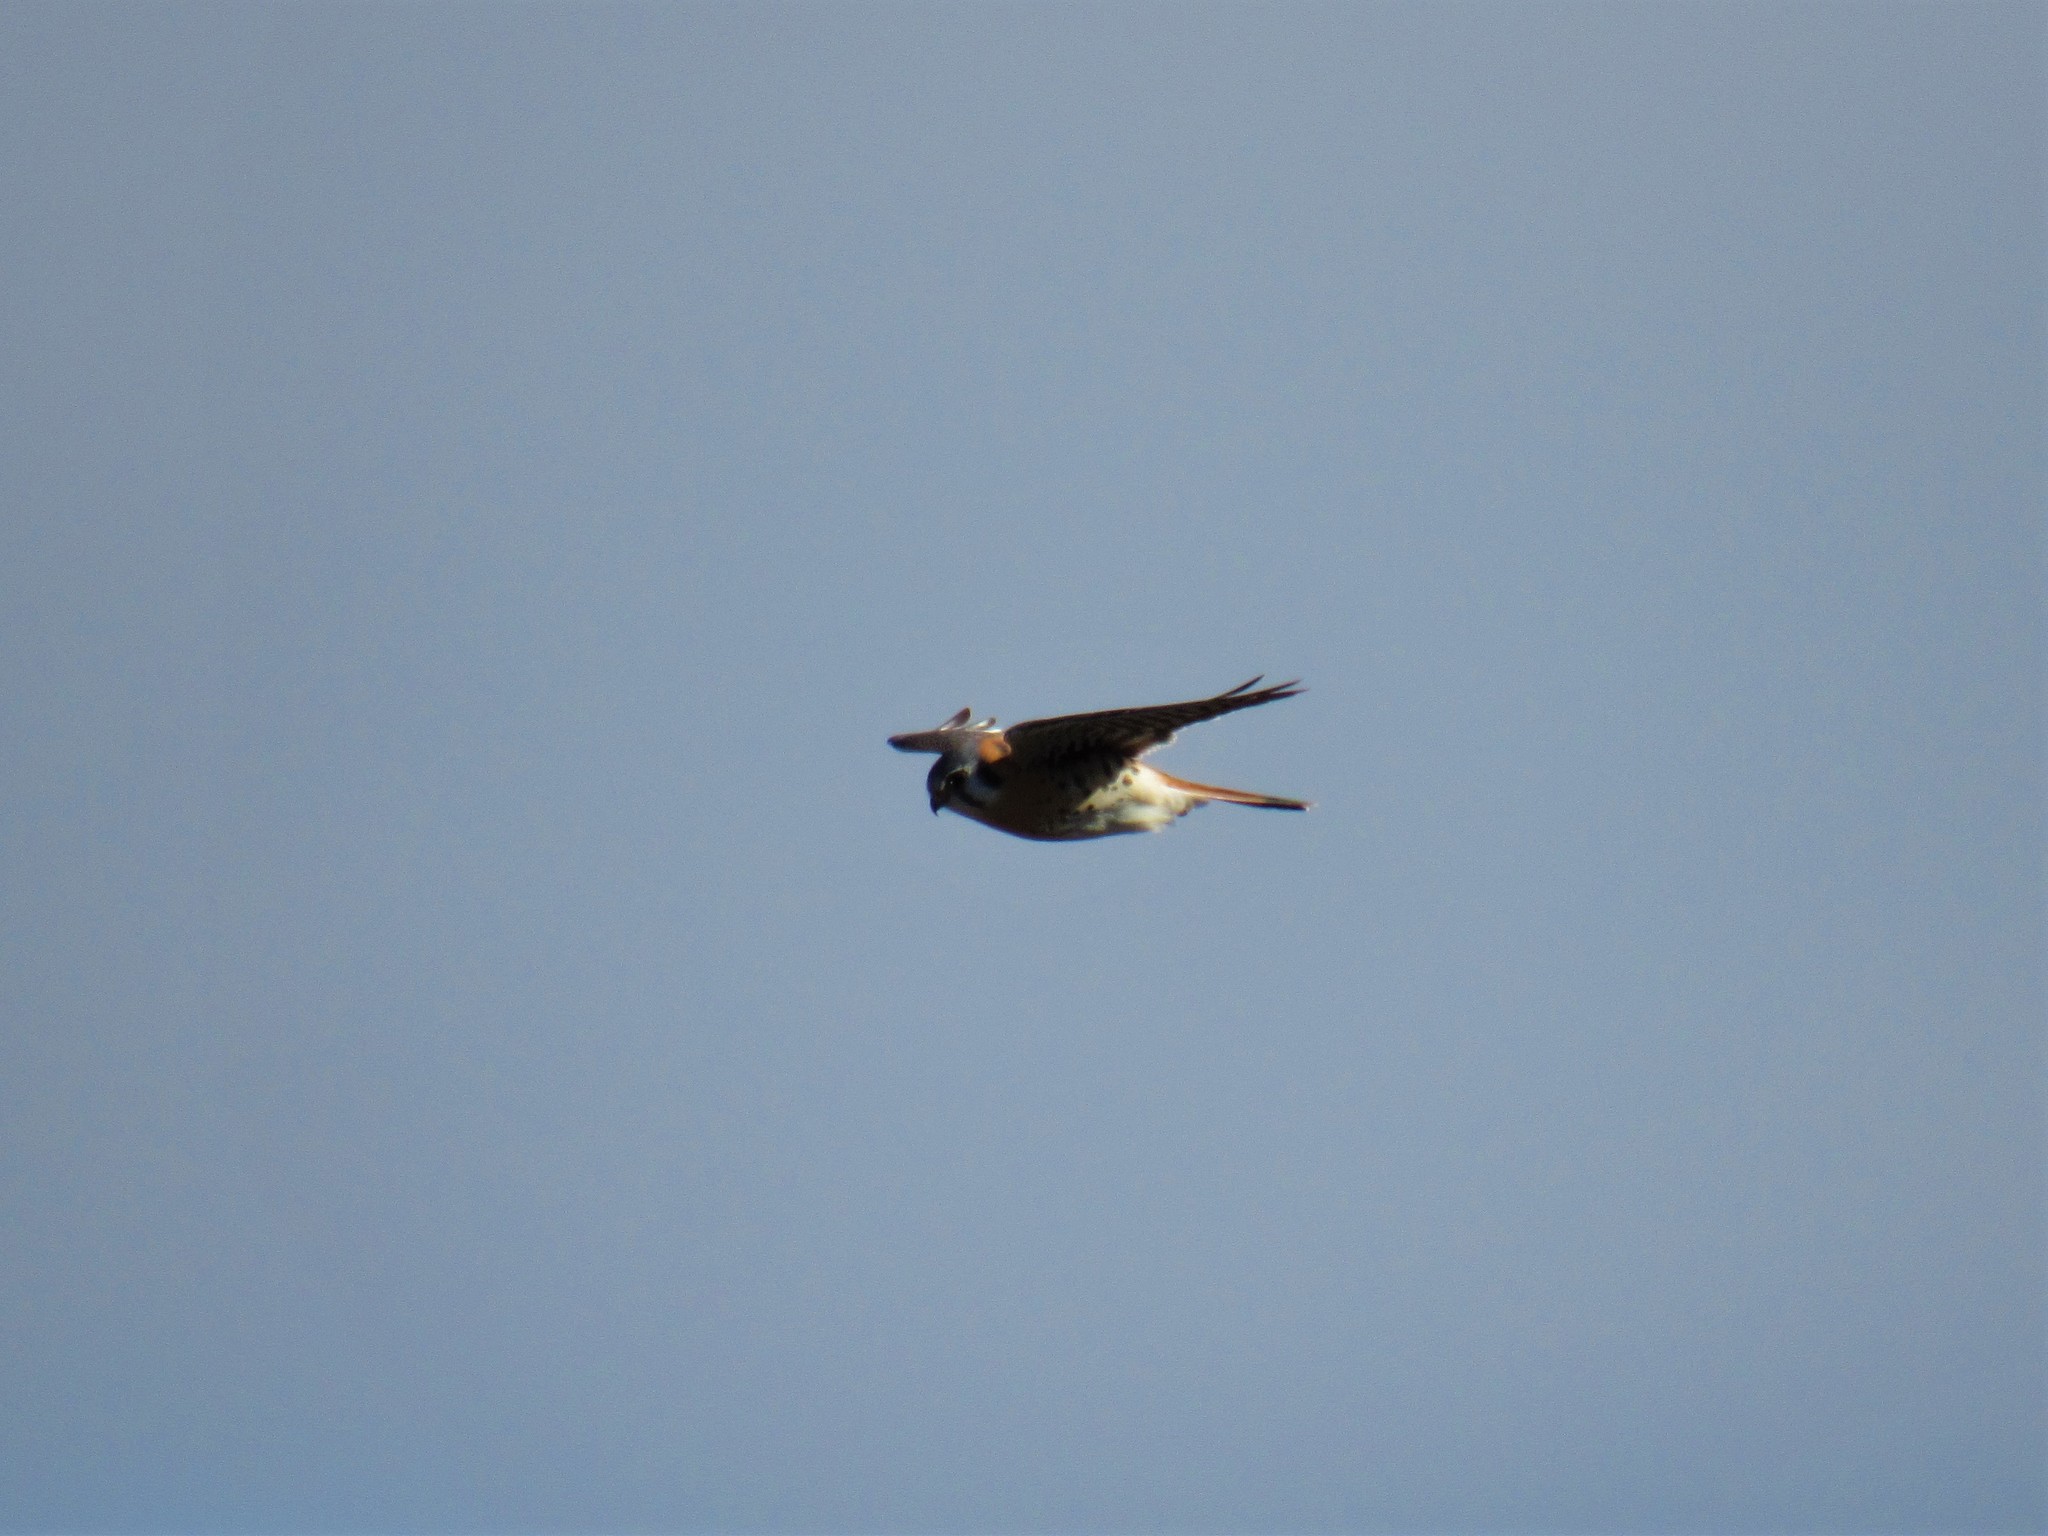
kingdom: Animalia
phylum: Chordata
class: Aves
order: Falconiformes
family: Falconidae
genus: Falco
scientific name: Falco sparverius
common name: American kestrel
